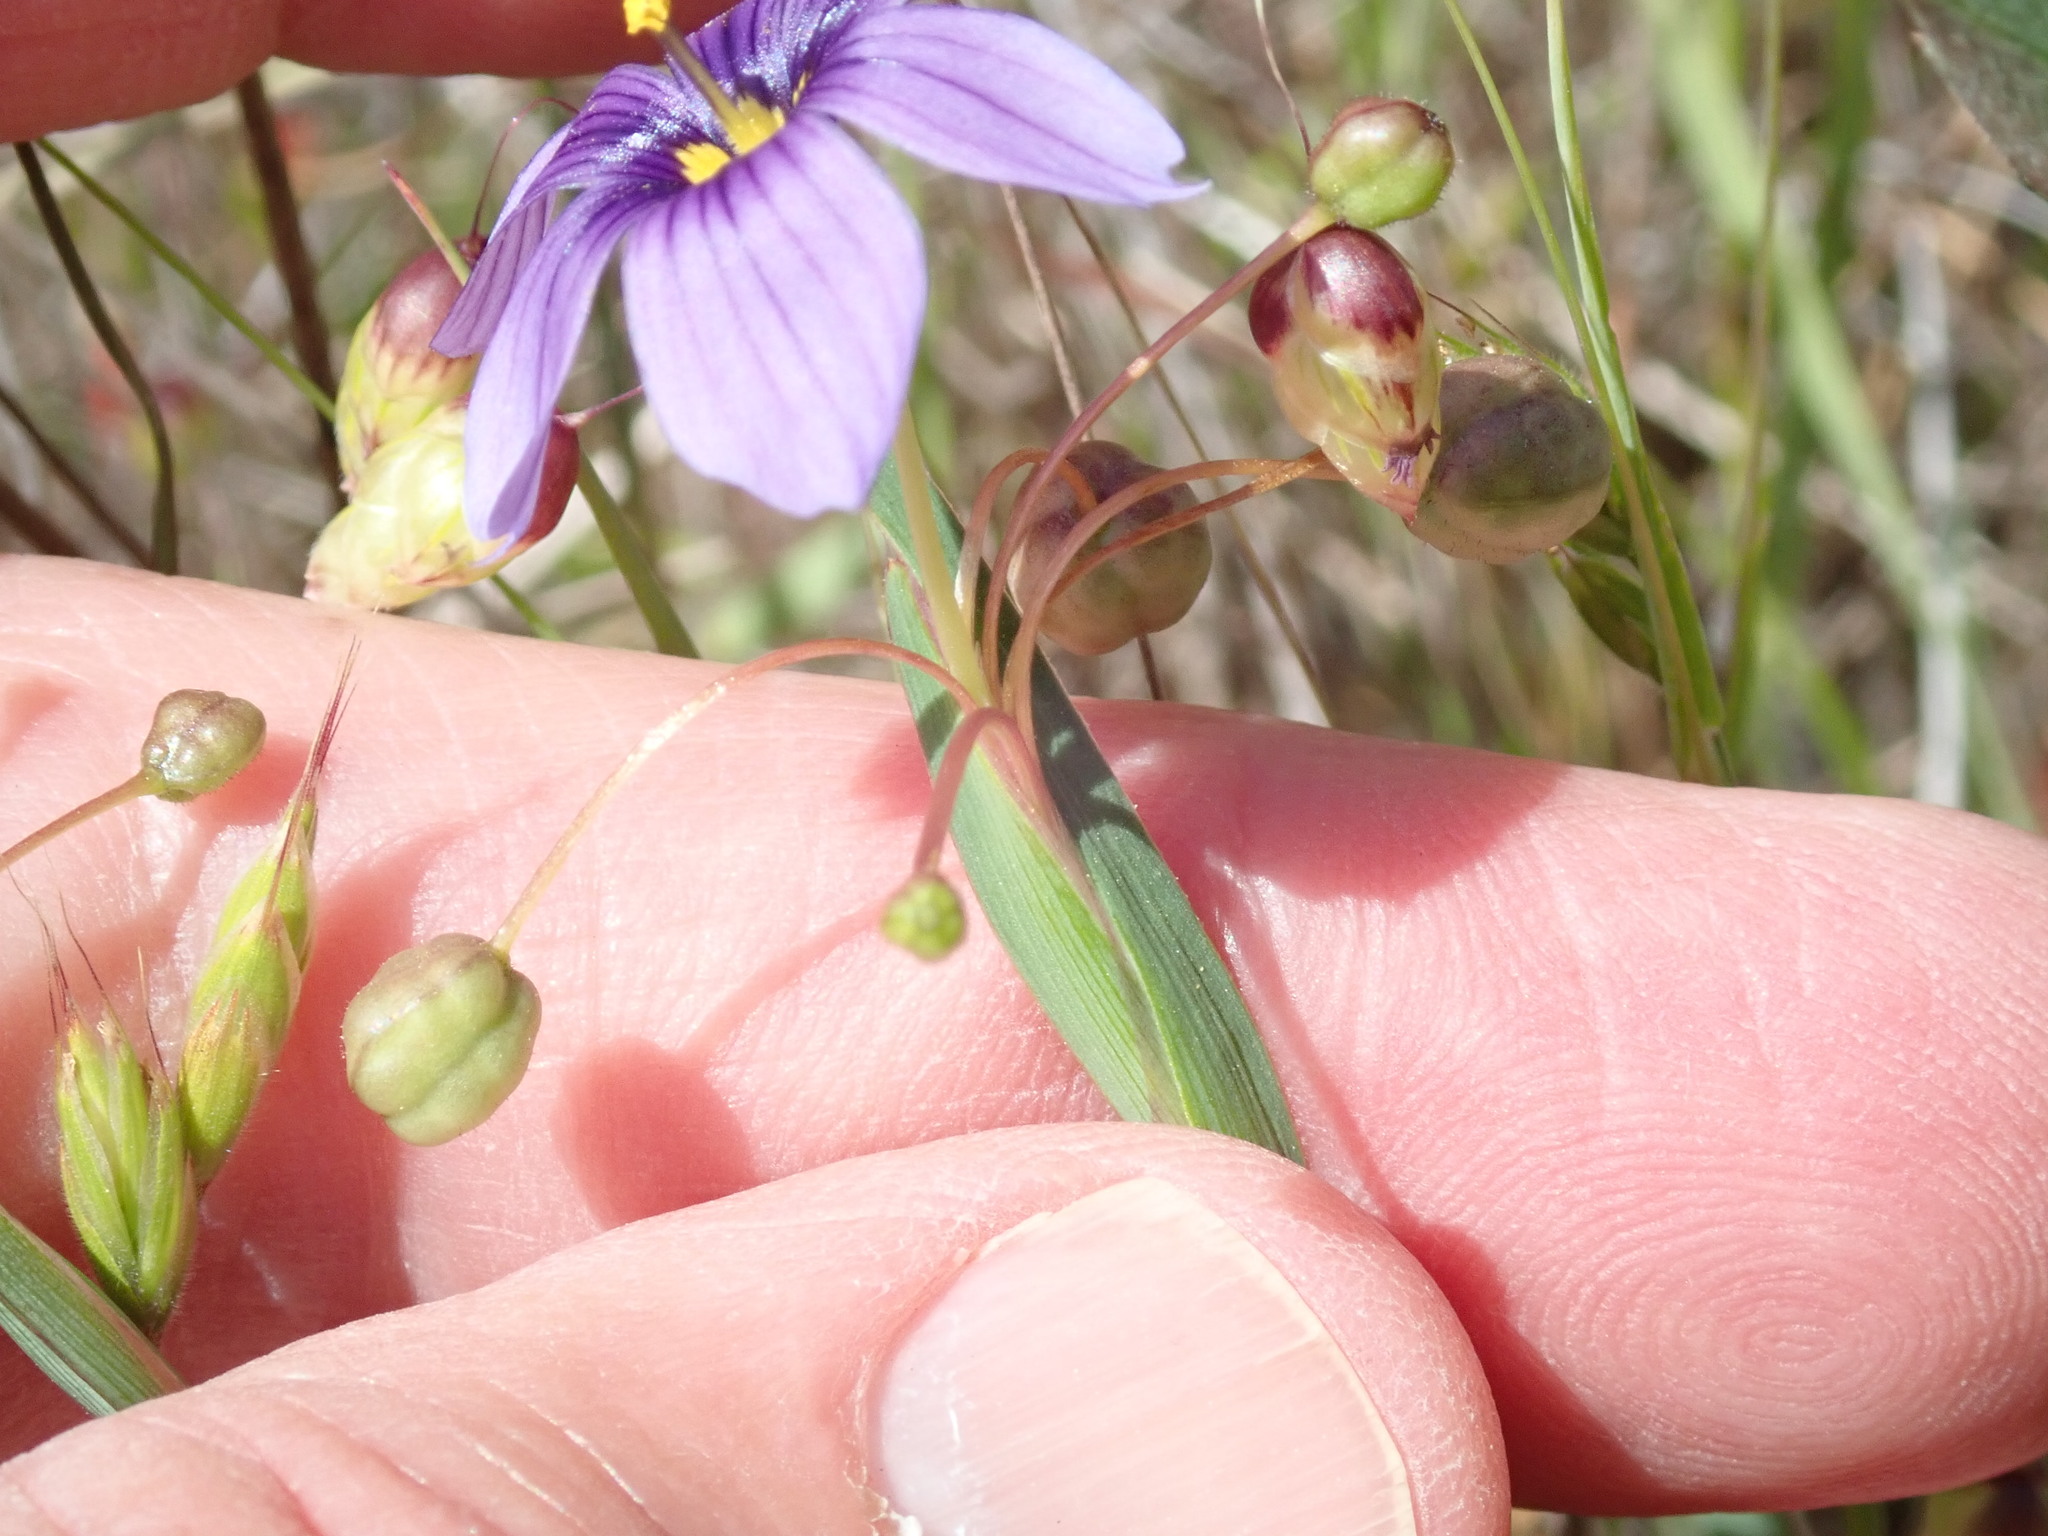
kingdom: Plantae
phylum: Tracheophyta
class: Liliopsida
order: Asparagales
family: Iridaceae
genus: Sisyrinchium
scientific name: Sisyrinchium bellum
